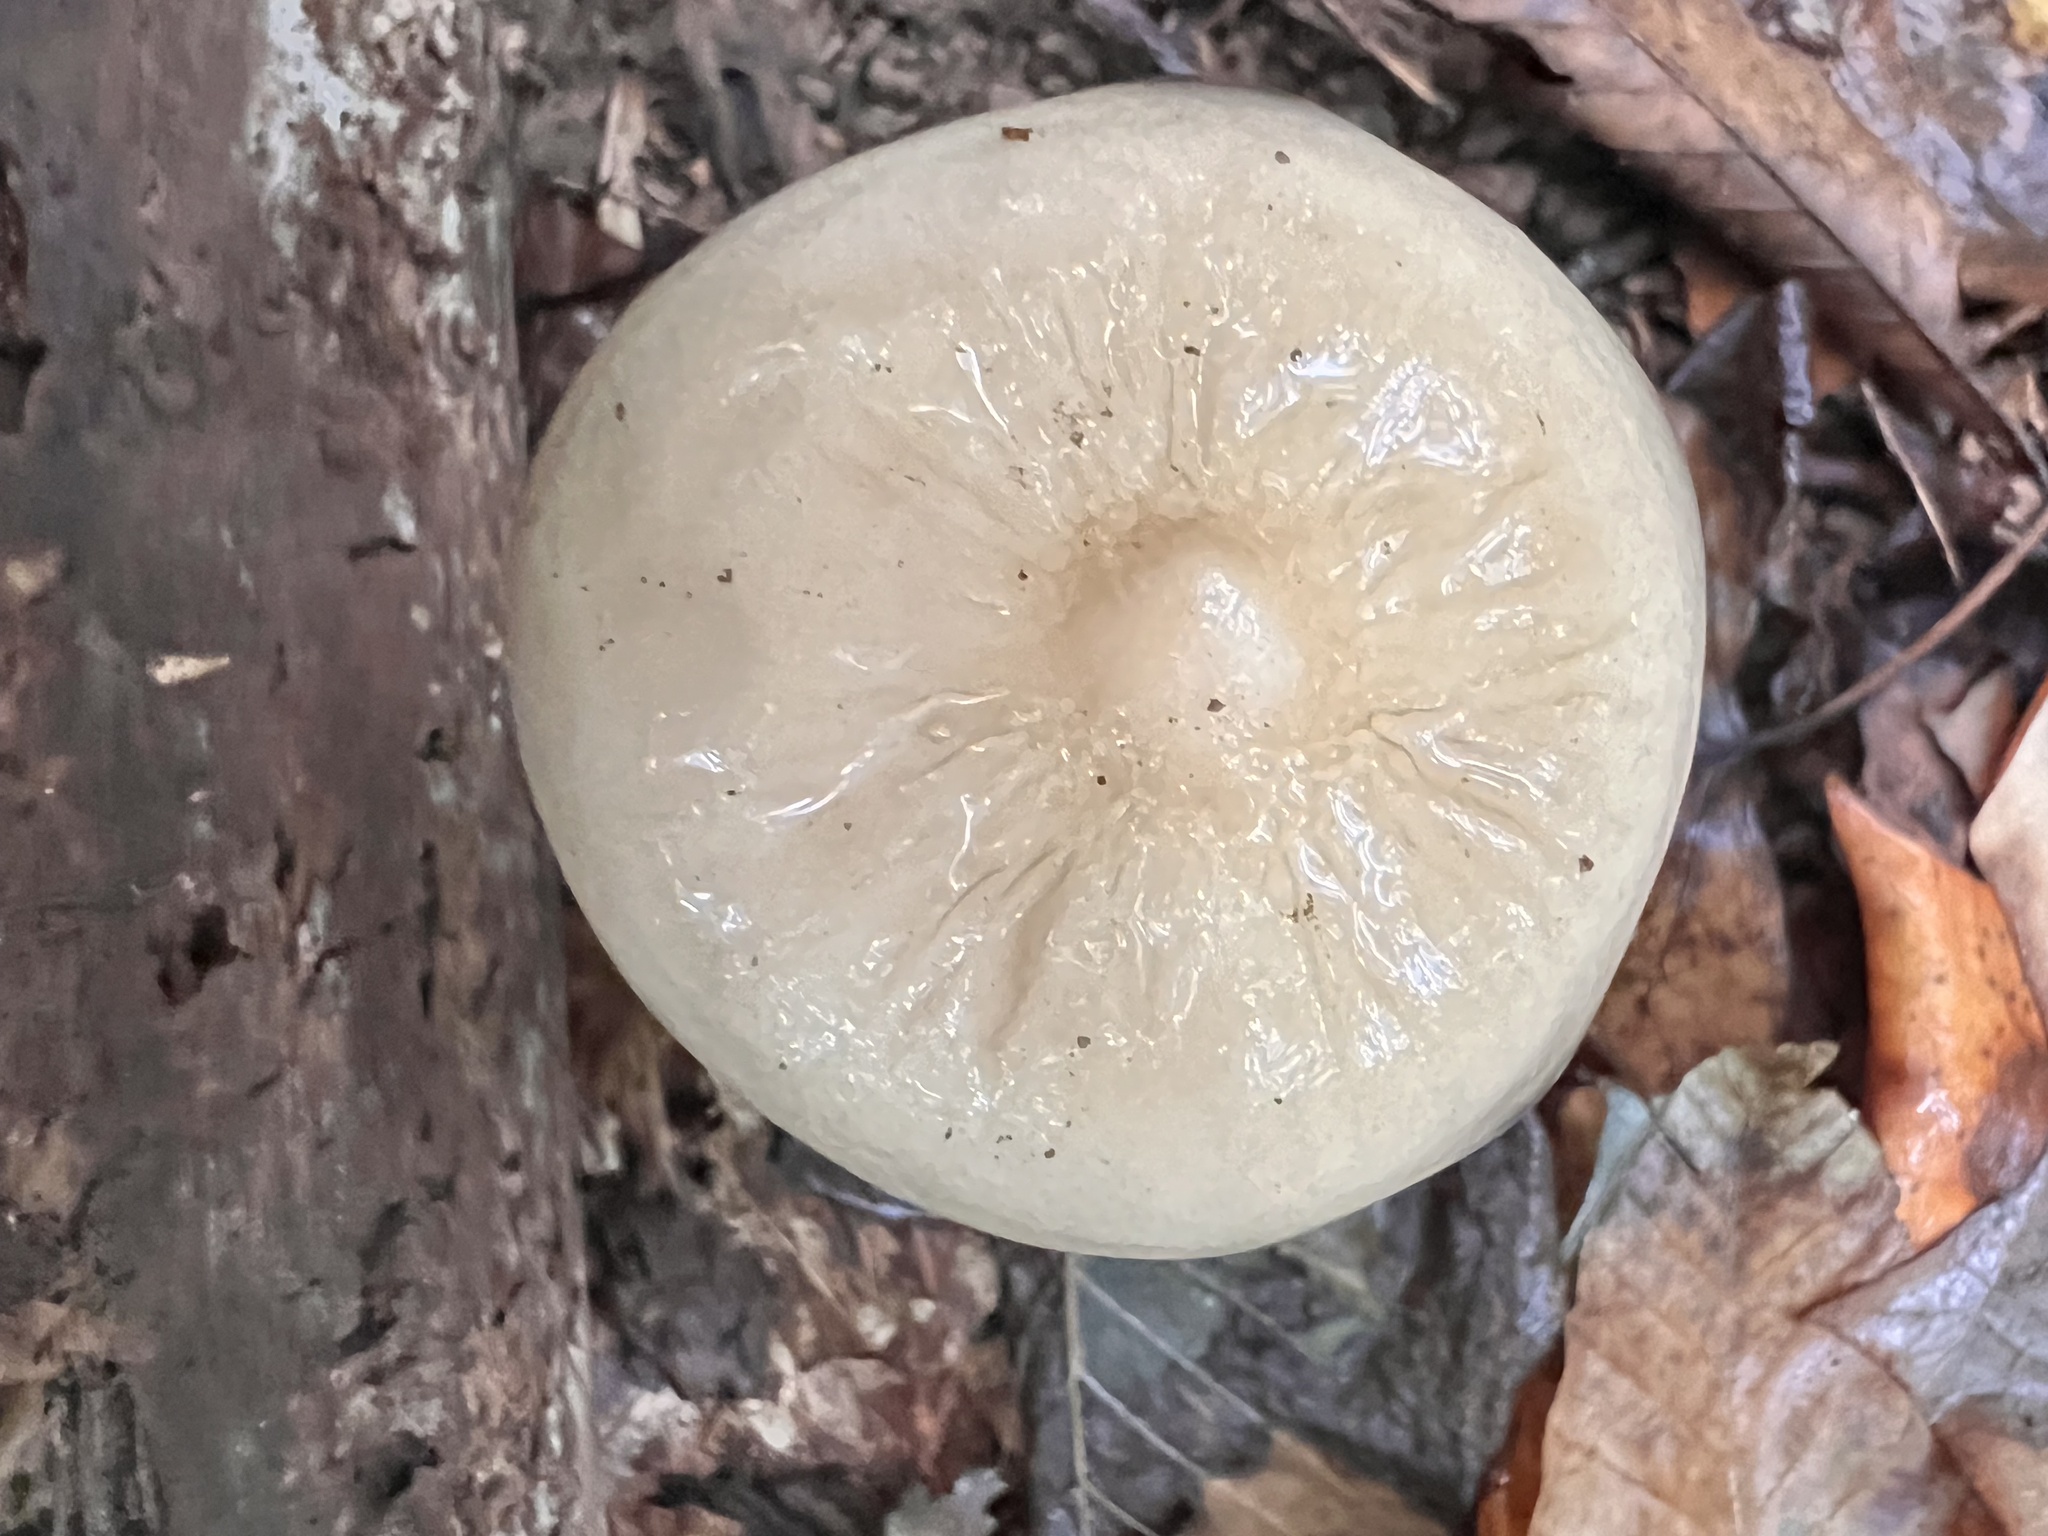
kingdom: Fungi
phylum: Basidiomycota
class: Agaricomycetes
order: Agaricales
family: Physalacriaceae
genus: Hymenopellis
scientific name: Hymenopellis furfuracea
